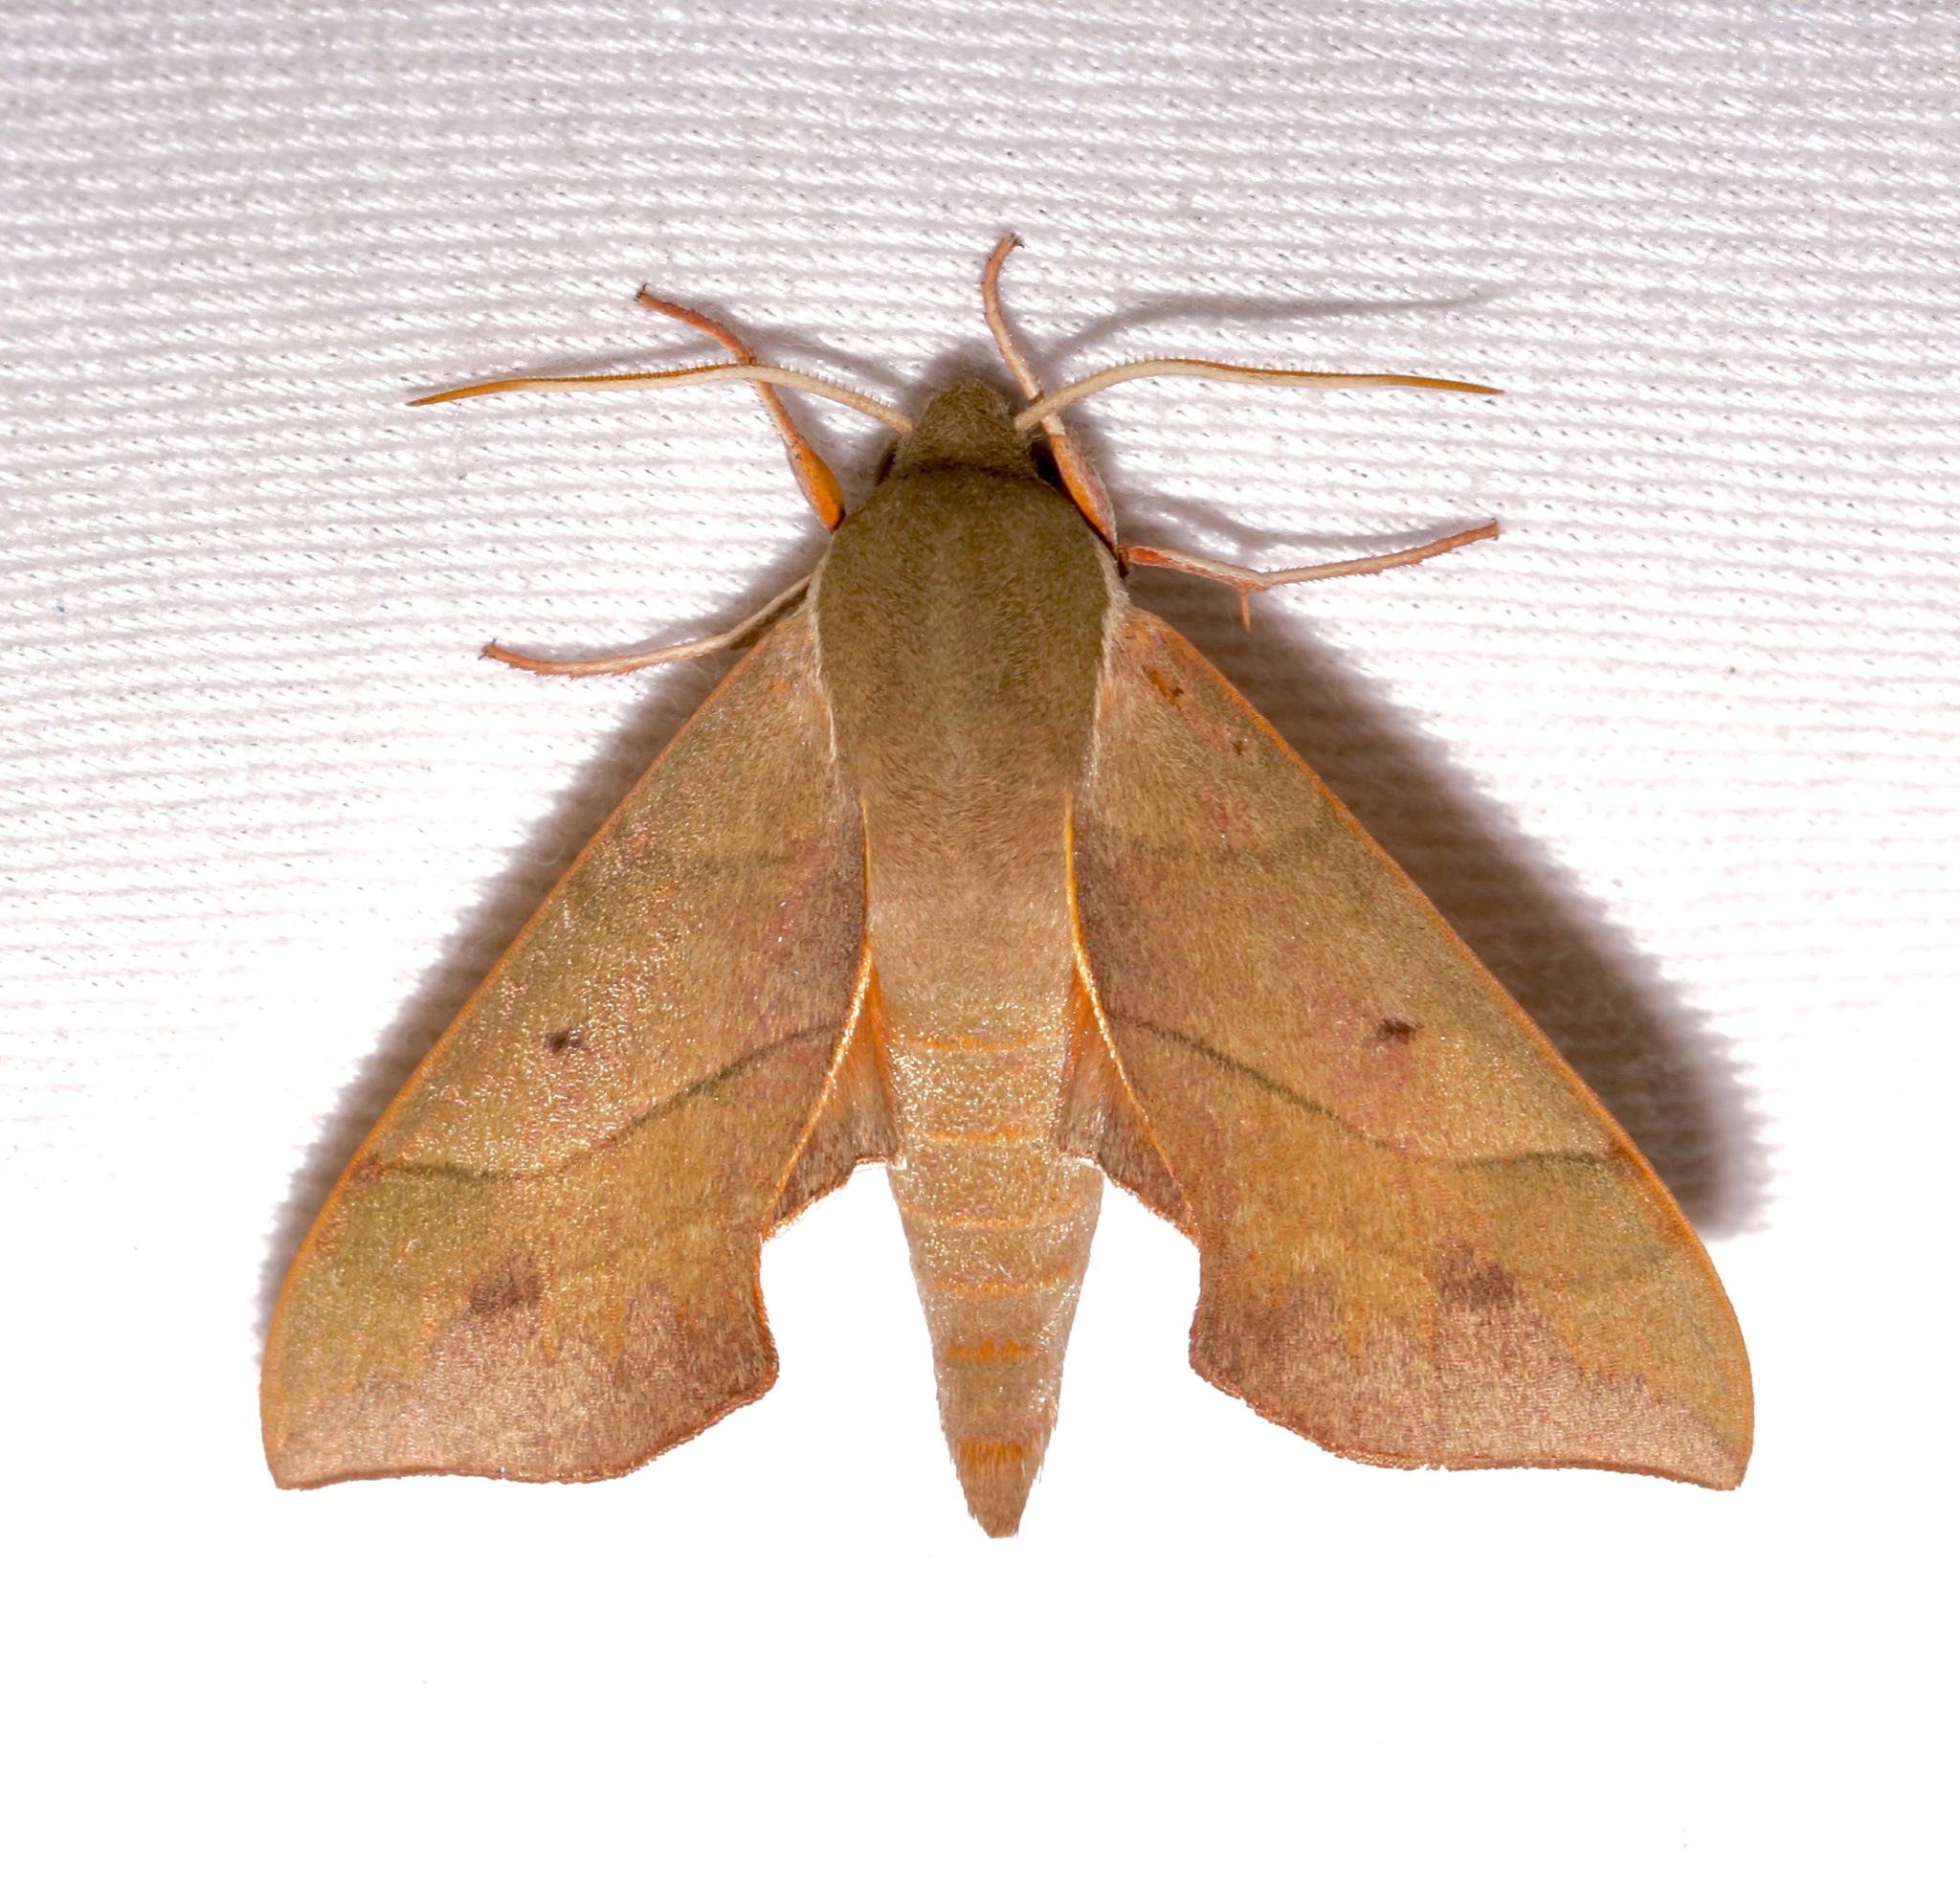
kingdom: Animalia
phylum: Arthropoda
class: Insecta
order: Lepidoptera
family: Sphingidae
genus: Darapsa
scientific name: Darapsa myron
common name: Hog sphinx
